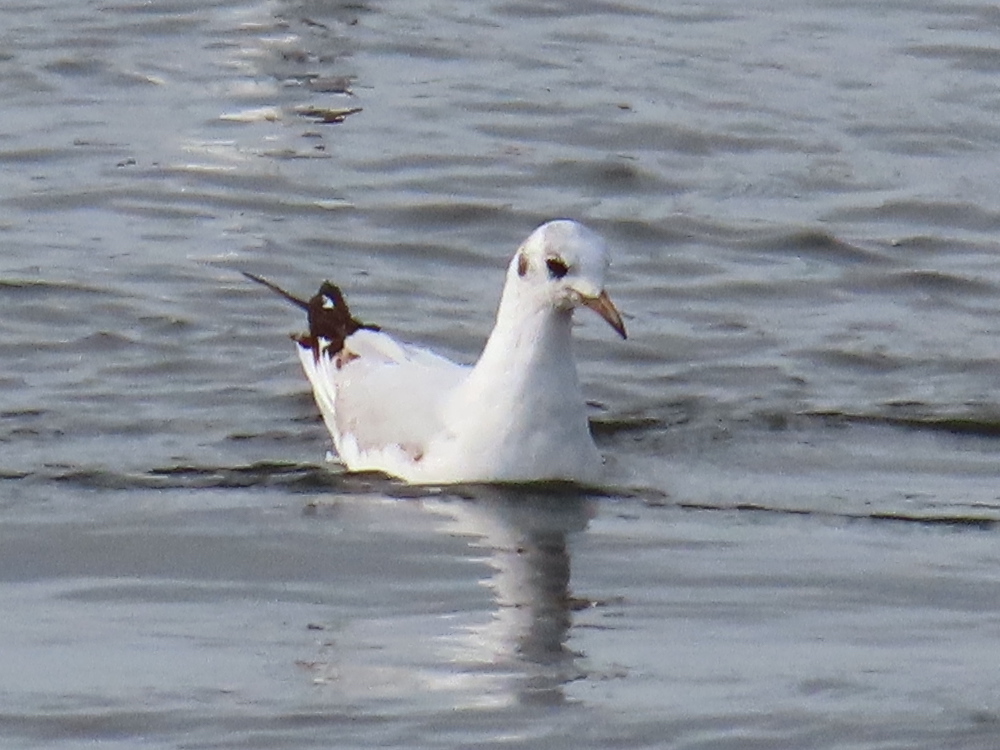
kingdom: Animalia
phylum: Chordata
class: Aves
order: Charadriiformes
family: Laridae
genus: Chroicocephalus
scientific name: Chroicocephalus ridibundus
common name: Black-headed gull
